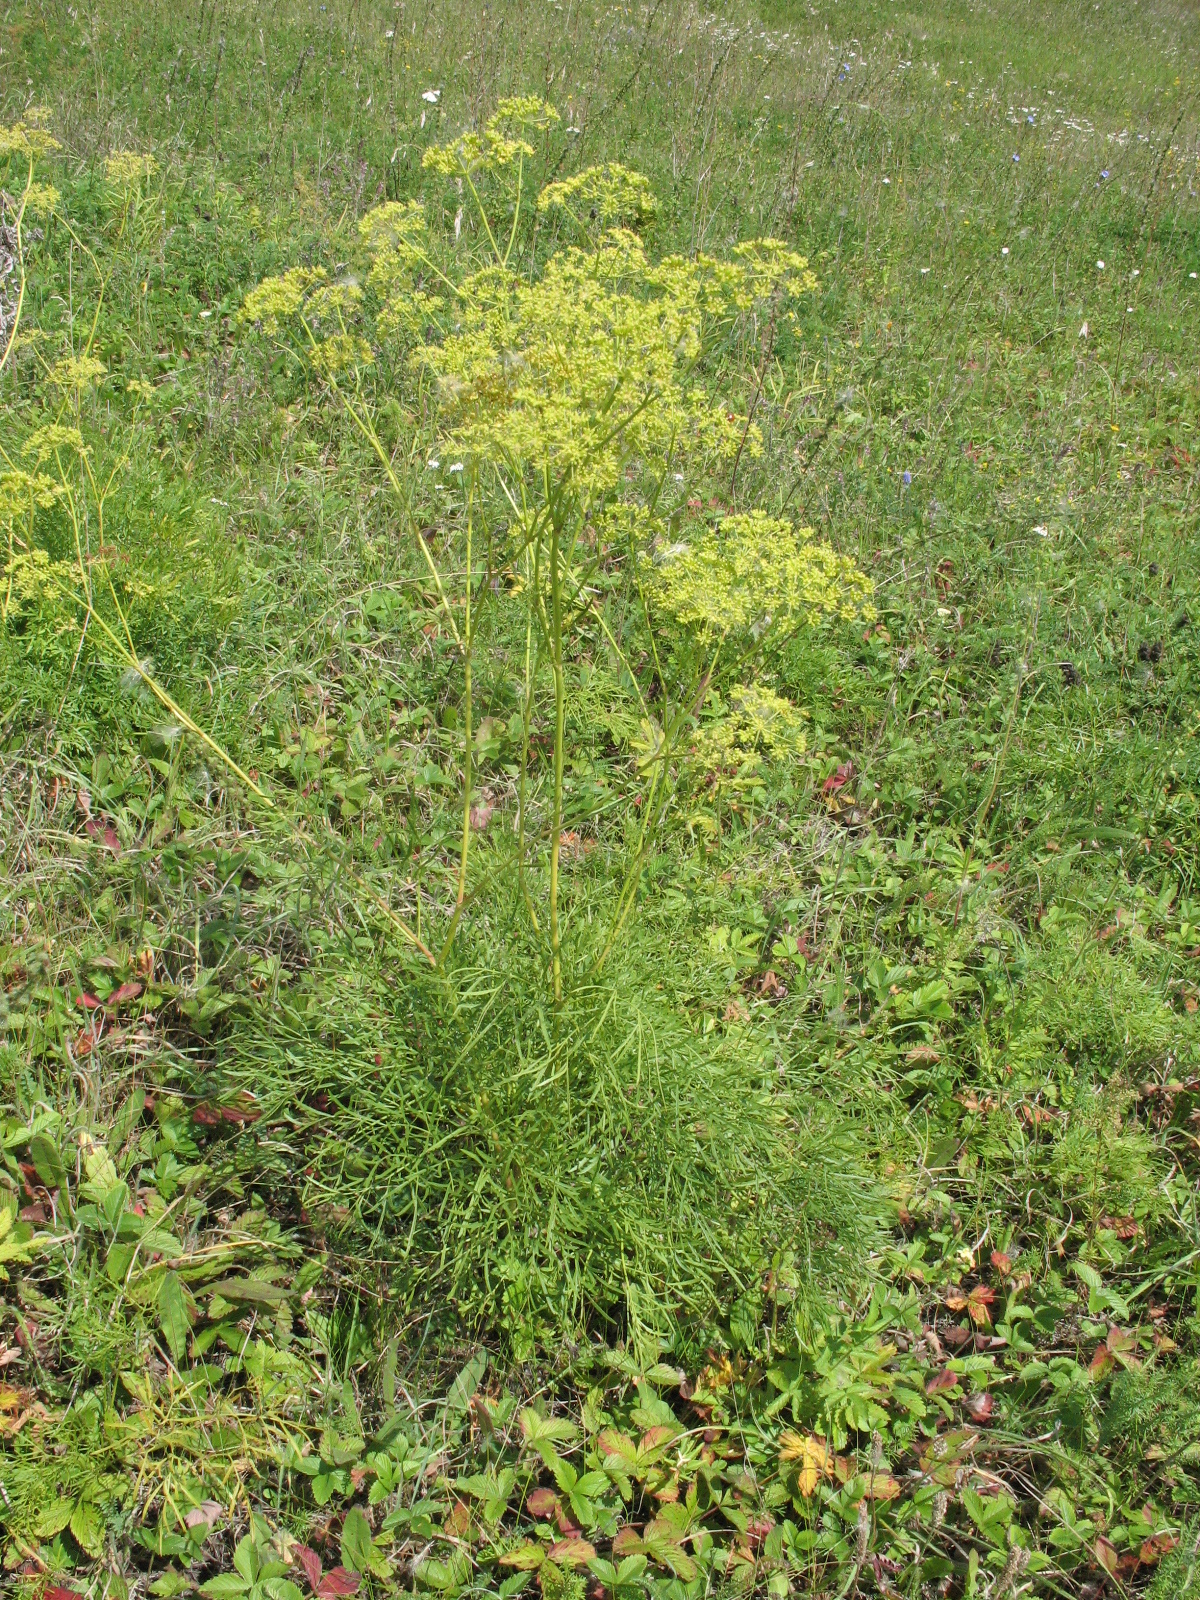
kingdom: Plantae
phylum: Tracheophyta
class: Magnoliopsida
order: Apiales
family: Apiaceae
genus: Silaum
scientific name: Silaum silaus
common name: Pepper-saxifrage
